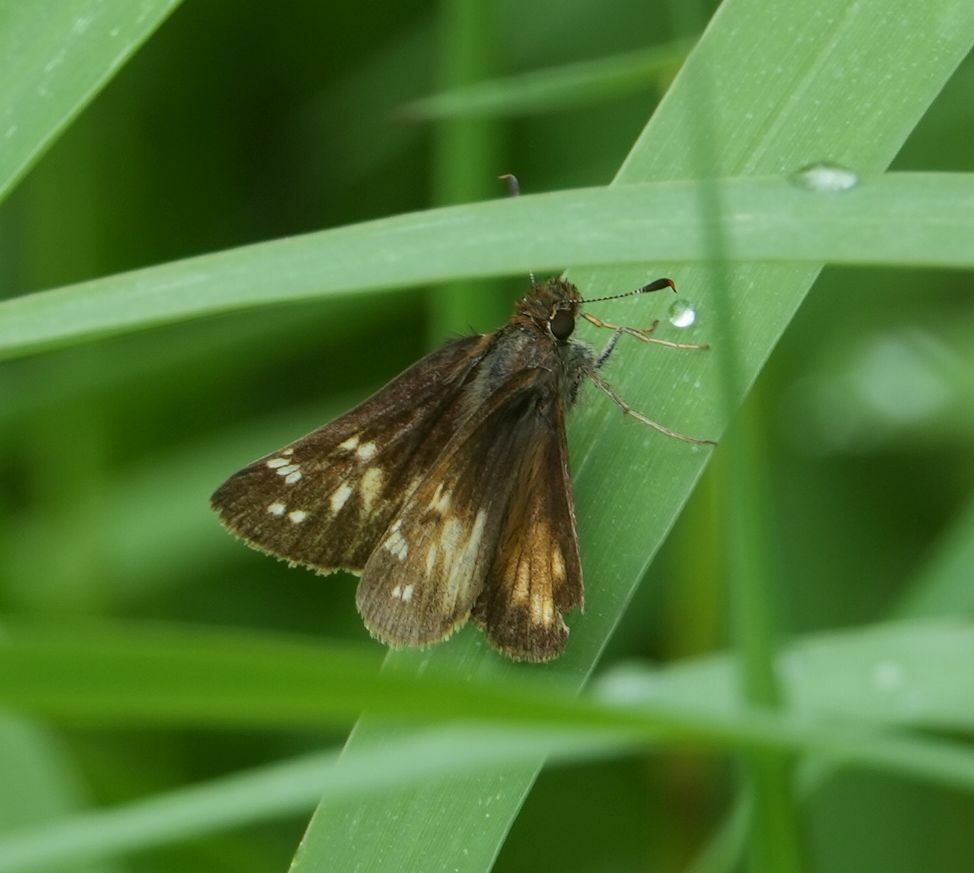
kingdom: Animalia
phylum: Arthropoda
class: Insecta
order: Lepidoptera
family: Hesperiidae
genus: Lon
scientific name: Lon hobomok
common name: Hobomok skipper
